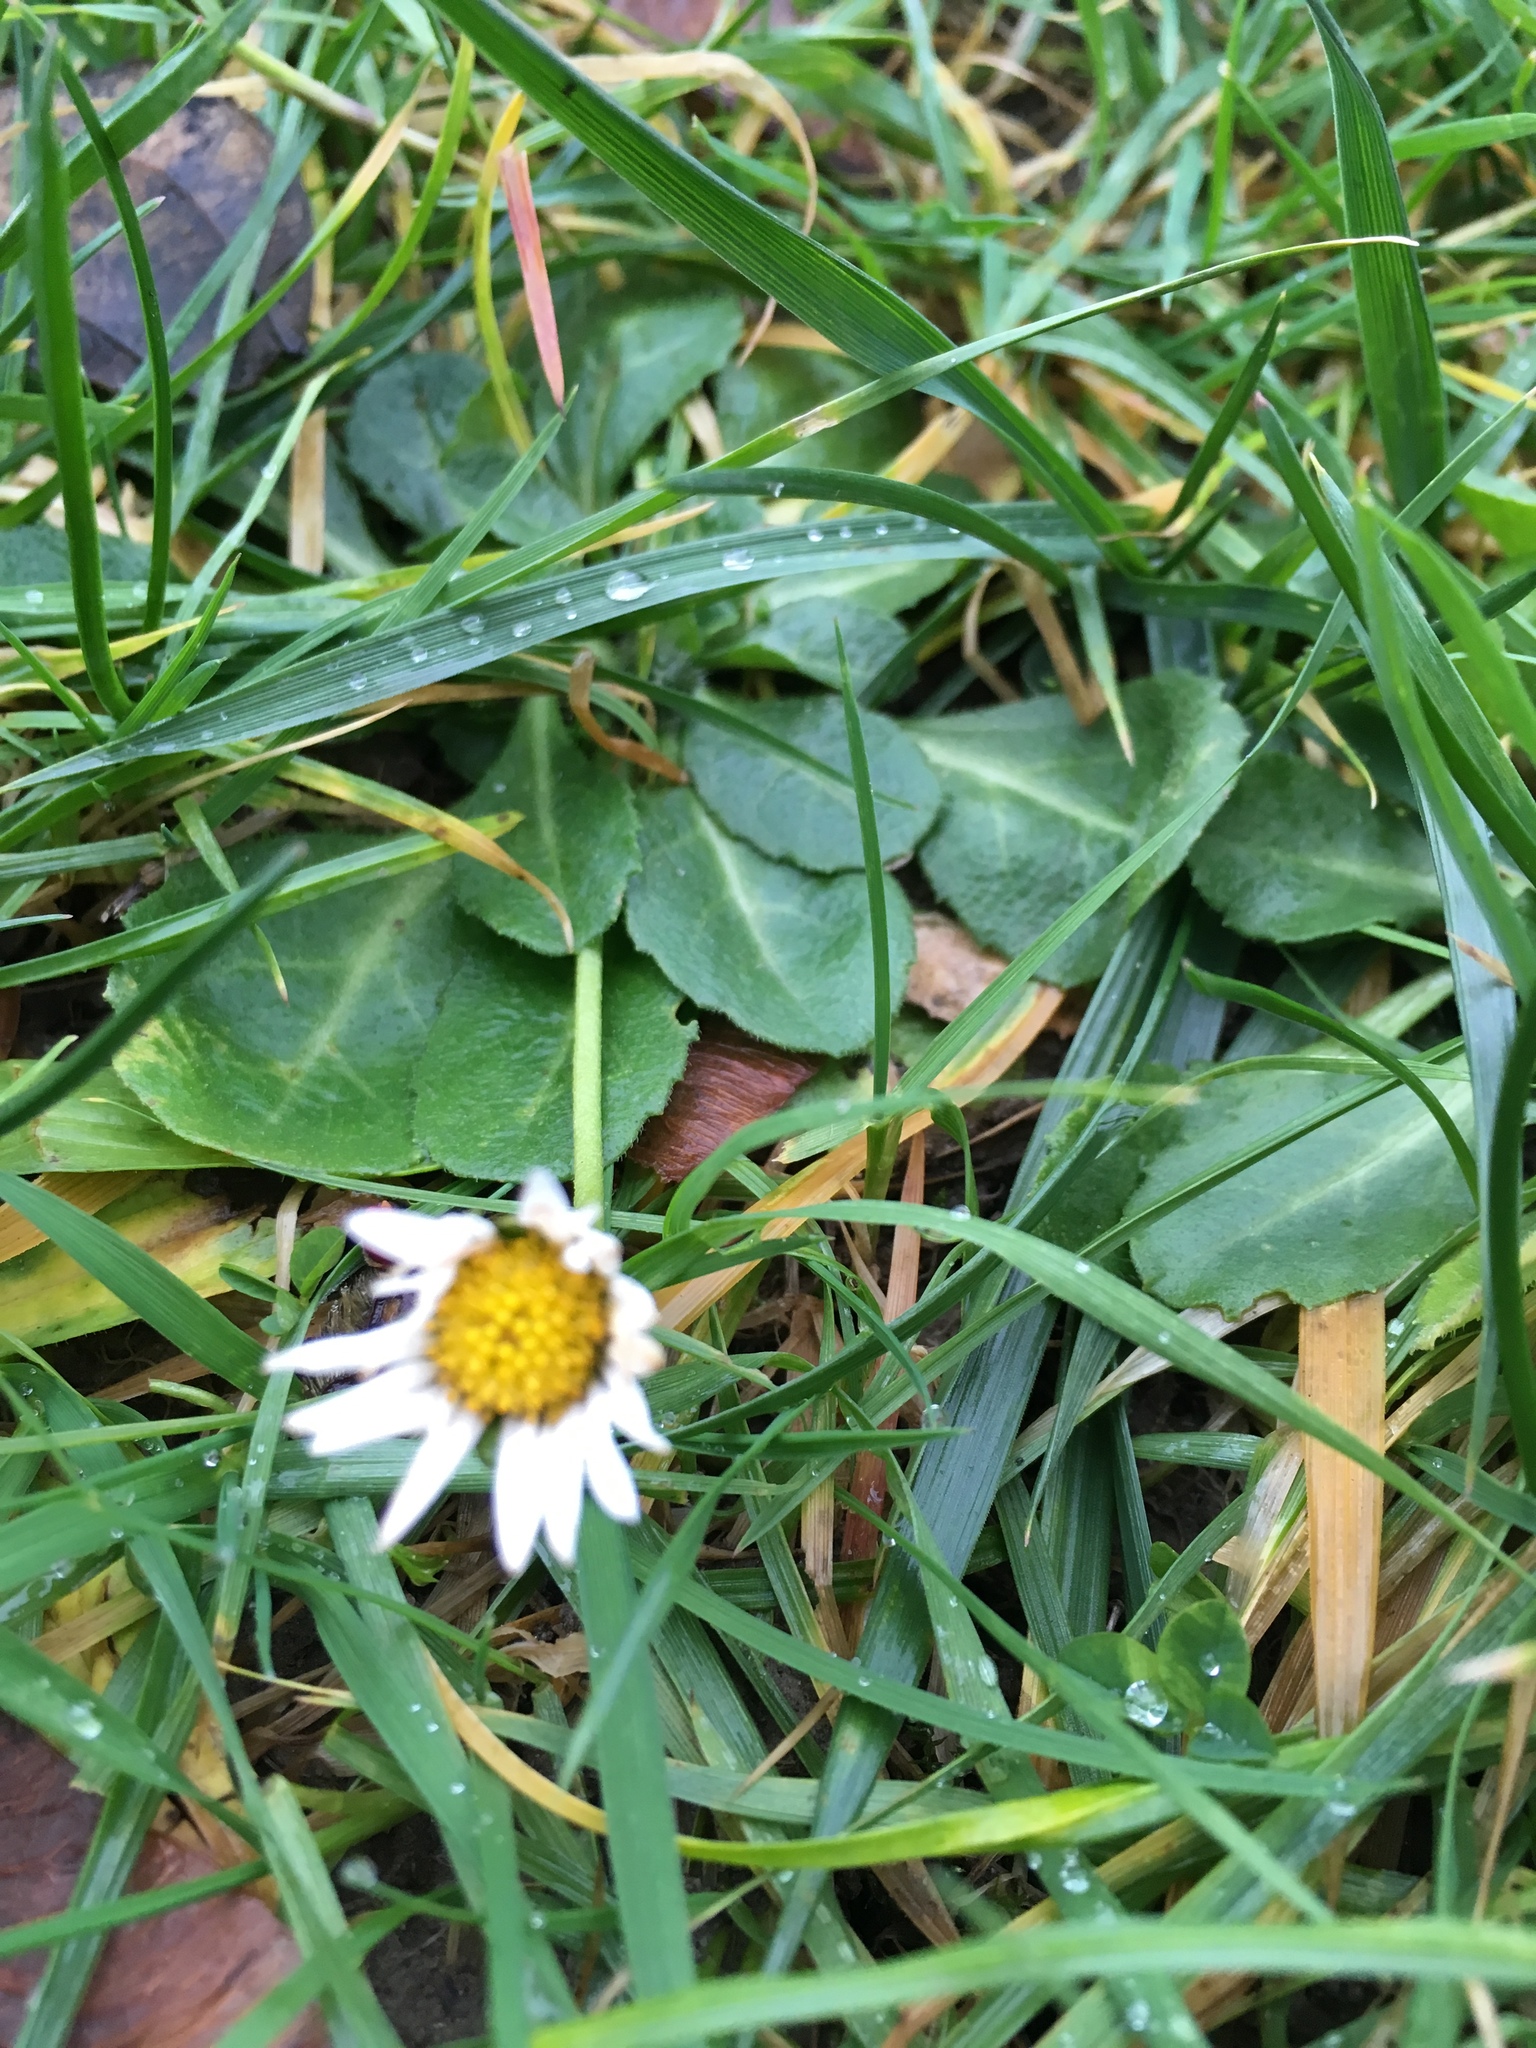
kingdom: Plantae
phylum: Tracheophyta
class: Magnoliopsida
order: Asterales
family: Asteraceae
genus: Bellis
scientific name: Bellis perennis
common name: Lawndaisy
